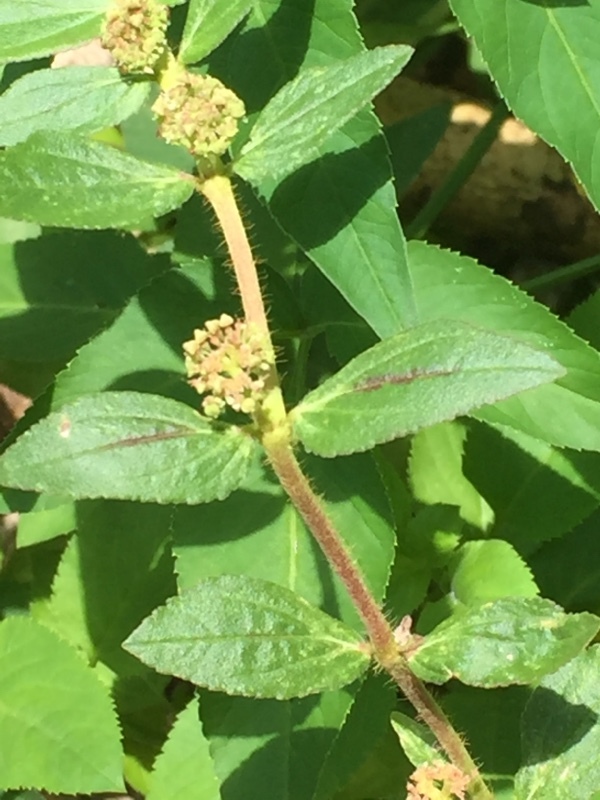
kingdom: Plantae
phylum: Tracheophyta
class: Magnoliopsida
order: Malpighiales
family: Euphorbiaceae
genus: Euphorbia
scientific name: Euphorbia hirta
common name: Pillpod sandmat
